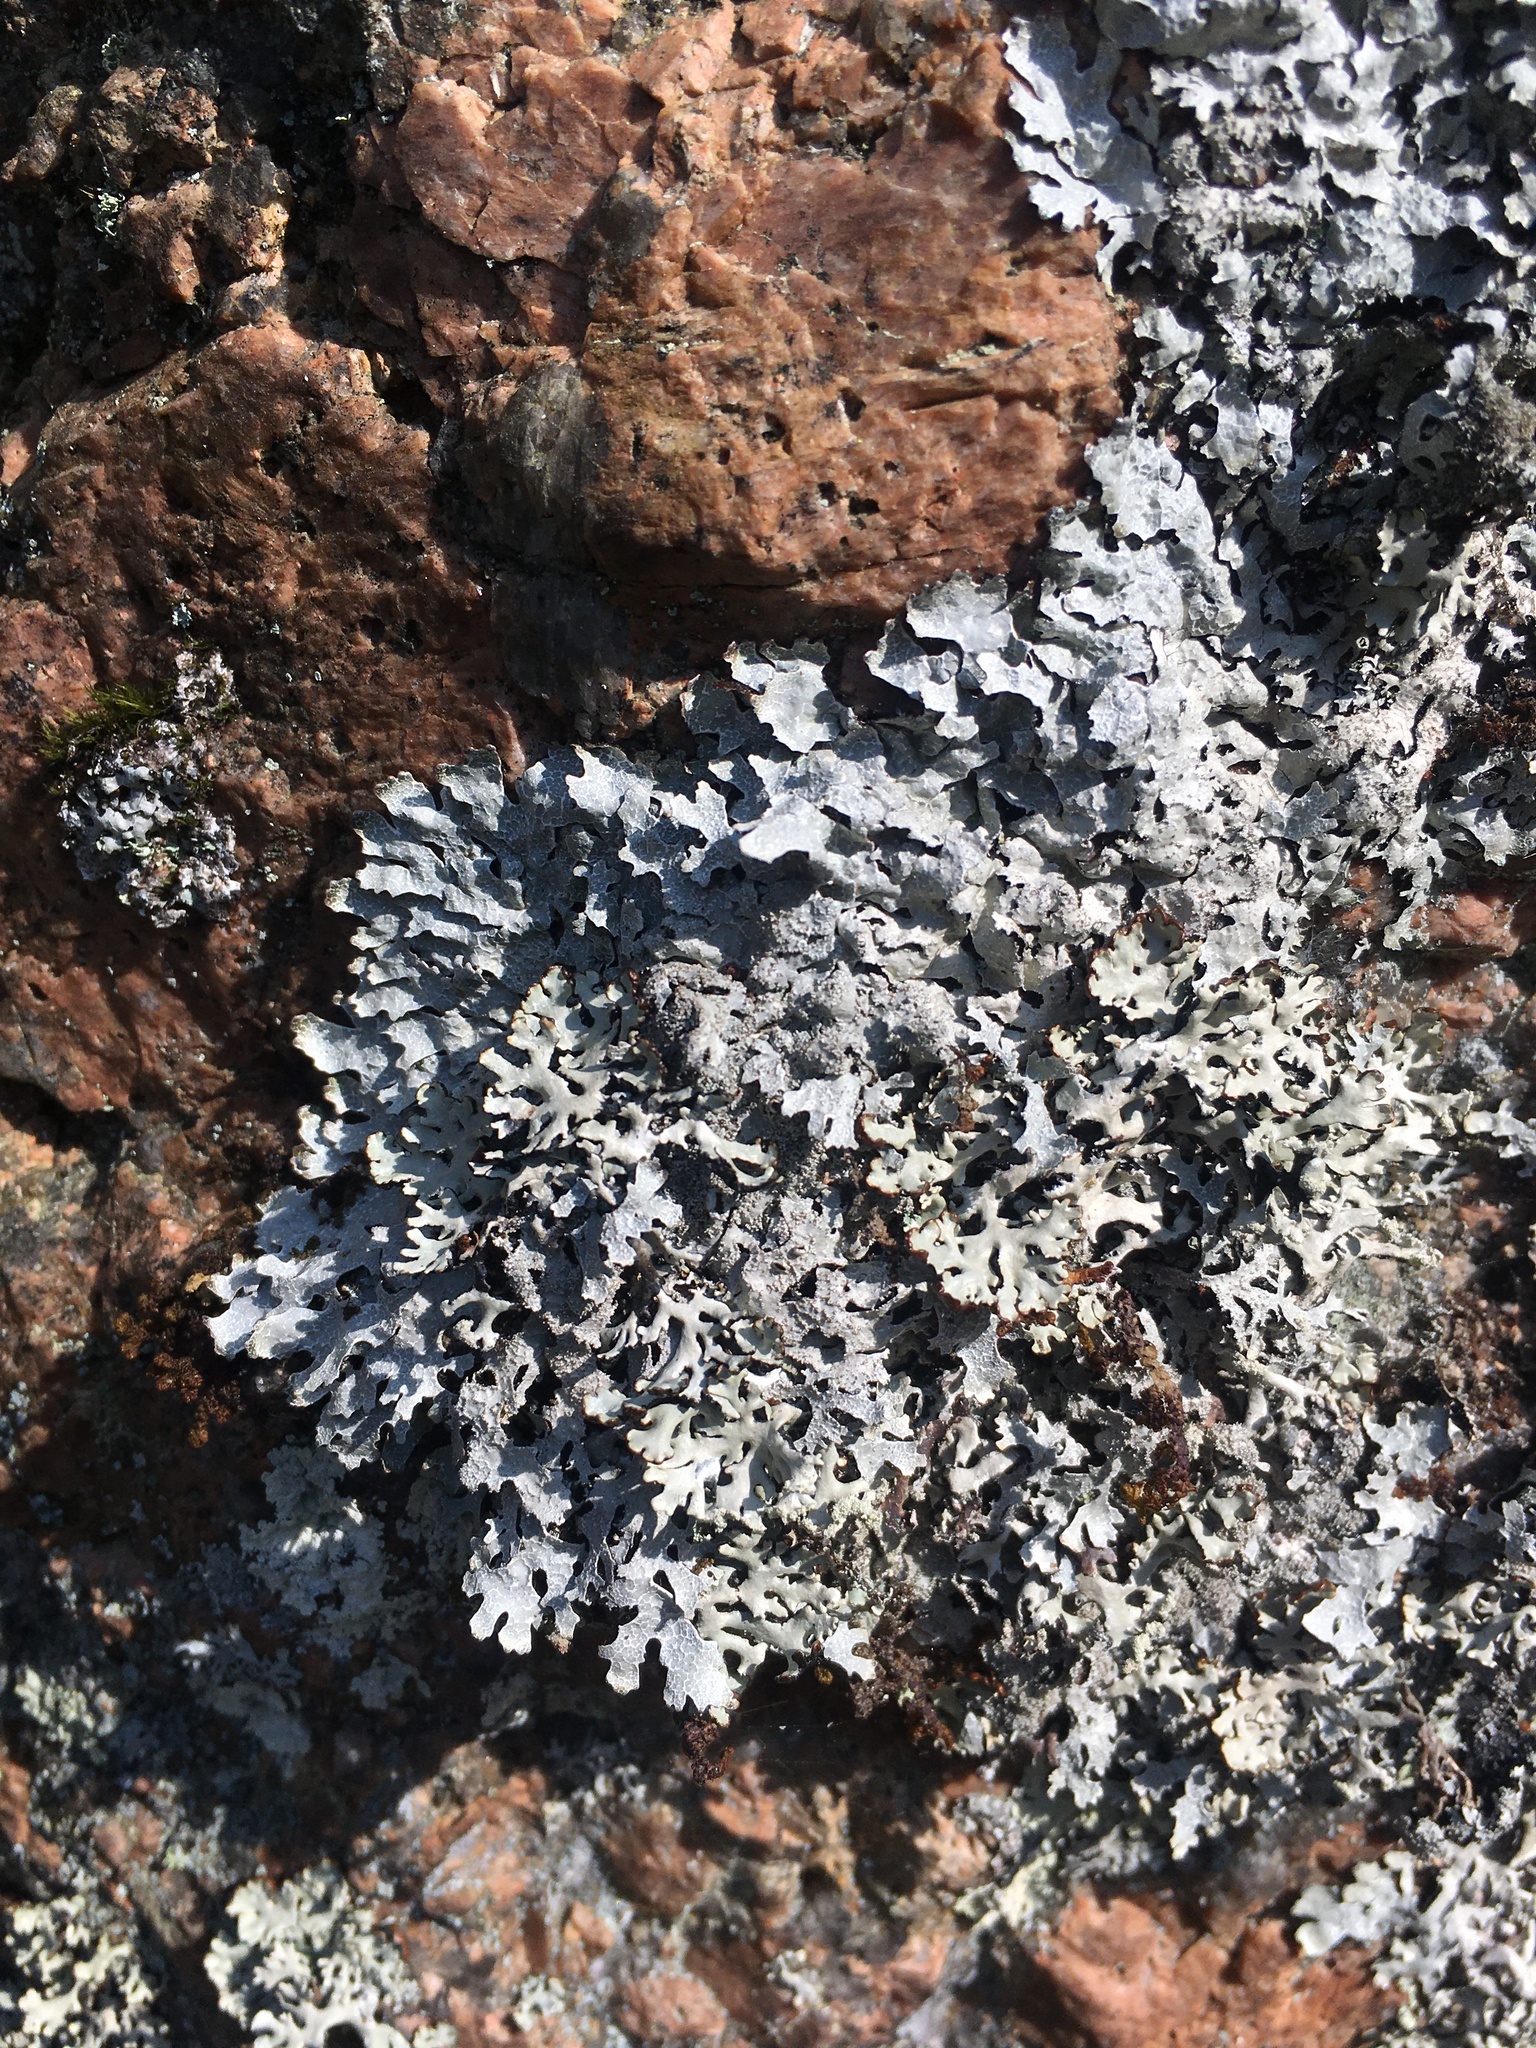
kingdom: Fungi
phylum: Ascomycota
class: Lecanoromycetes
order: Lecanorales
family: Parmeliaceae
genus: Hypogymnia
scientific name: Hypogymnia physodes
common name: Dark crottle
